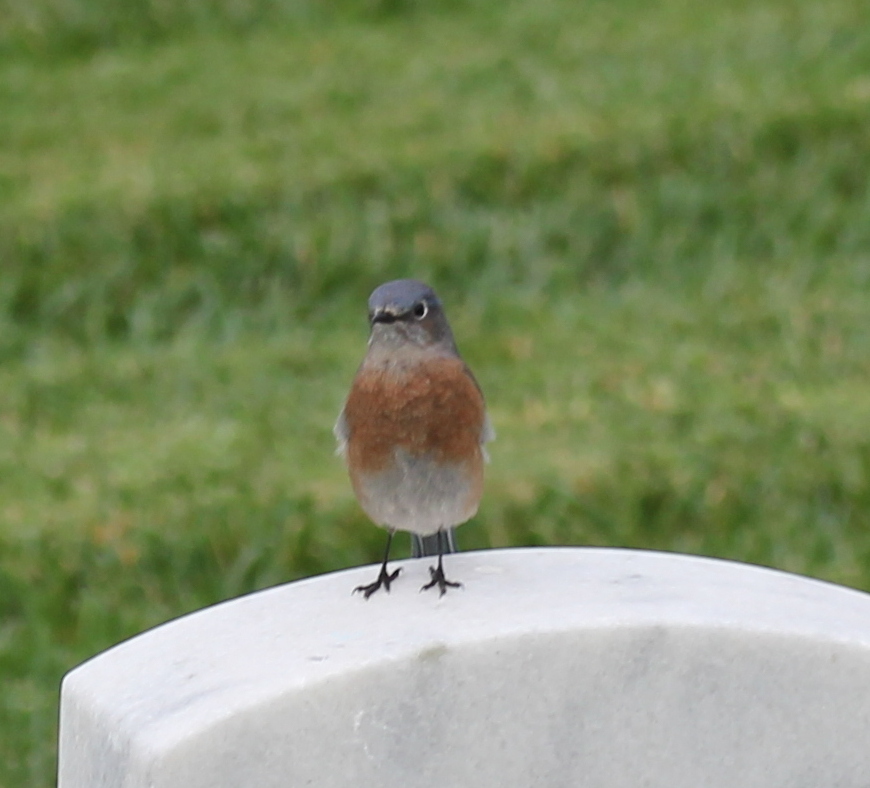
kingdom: Animalia
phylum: Chordata
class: Aves
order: Passeriformes
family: Turdidae
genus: Sialia
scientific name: Sialia mexicana
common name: Western bluebird
